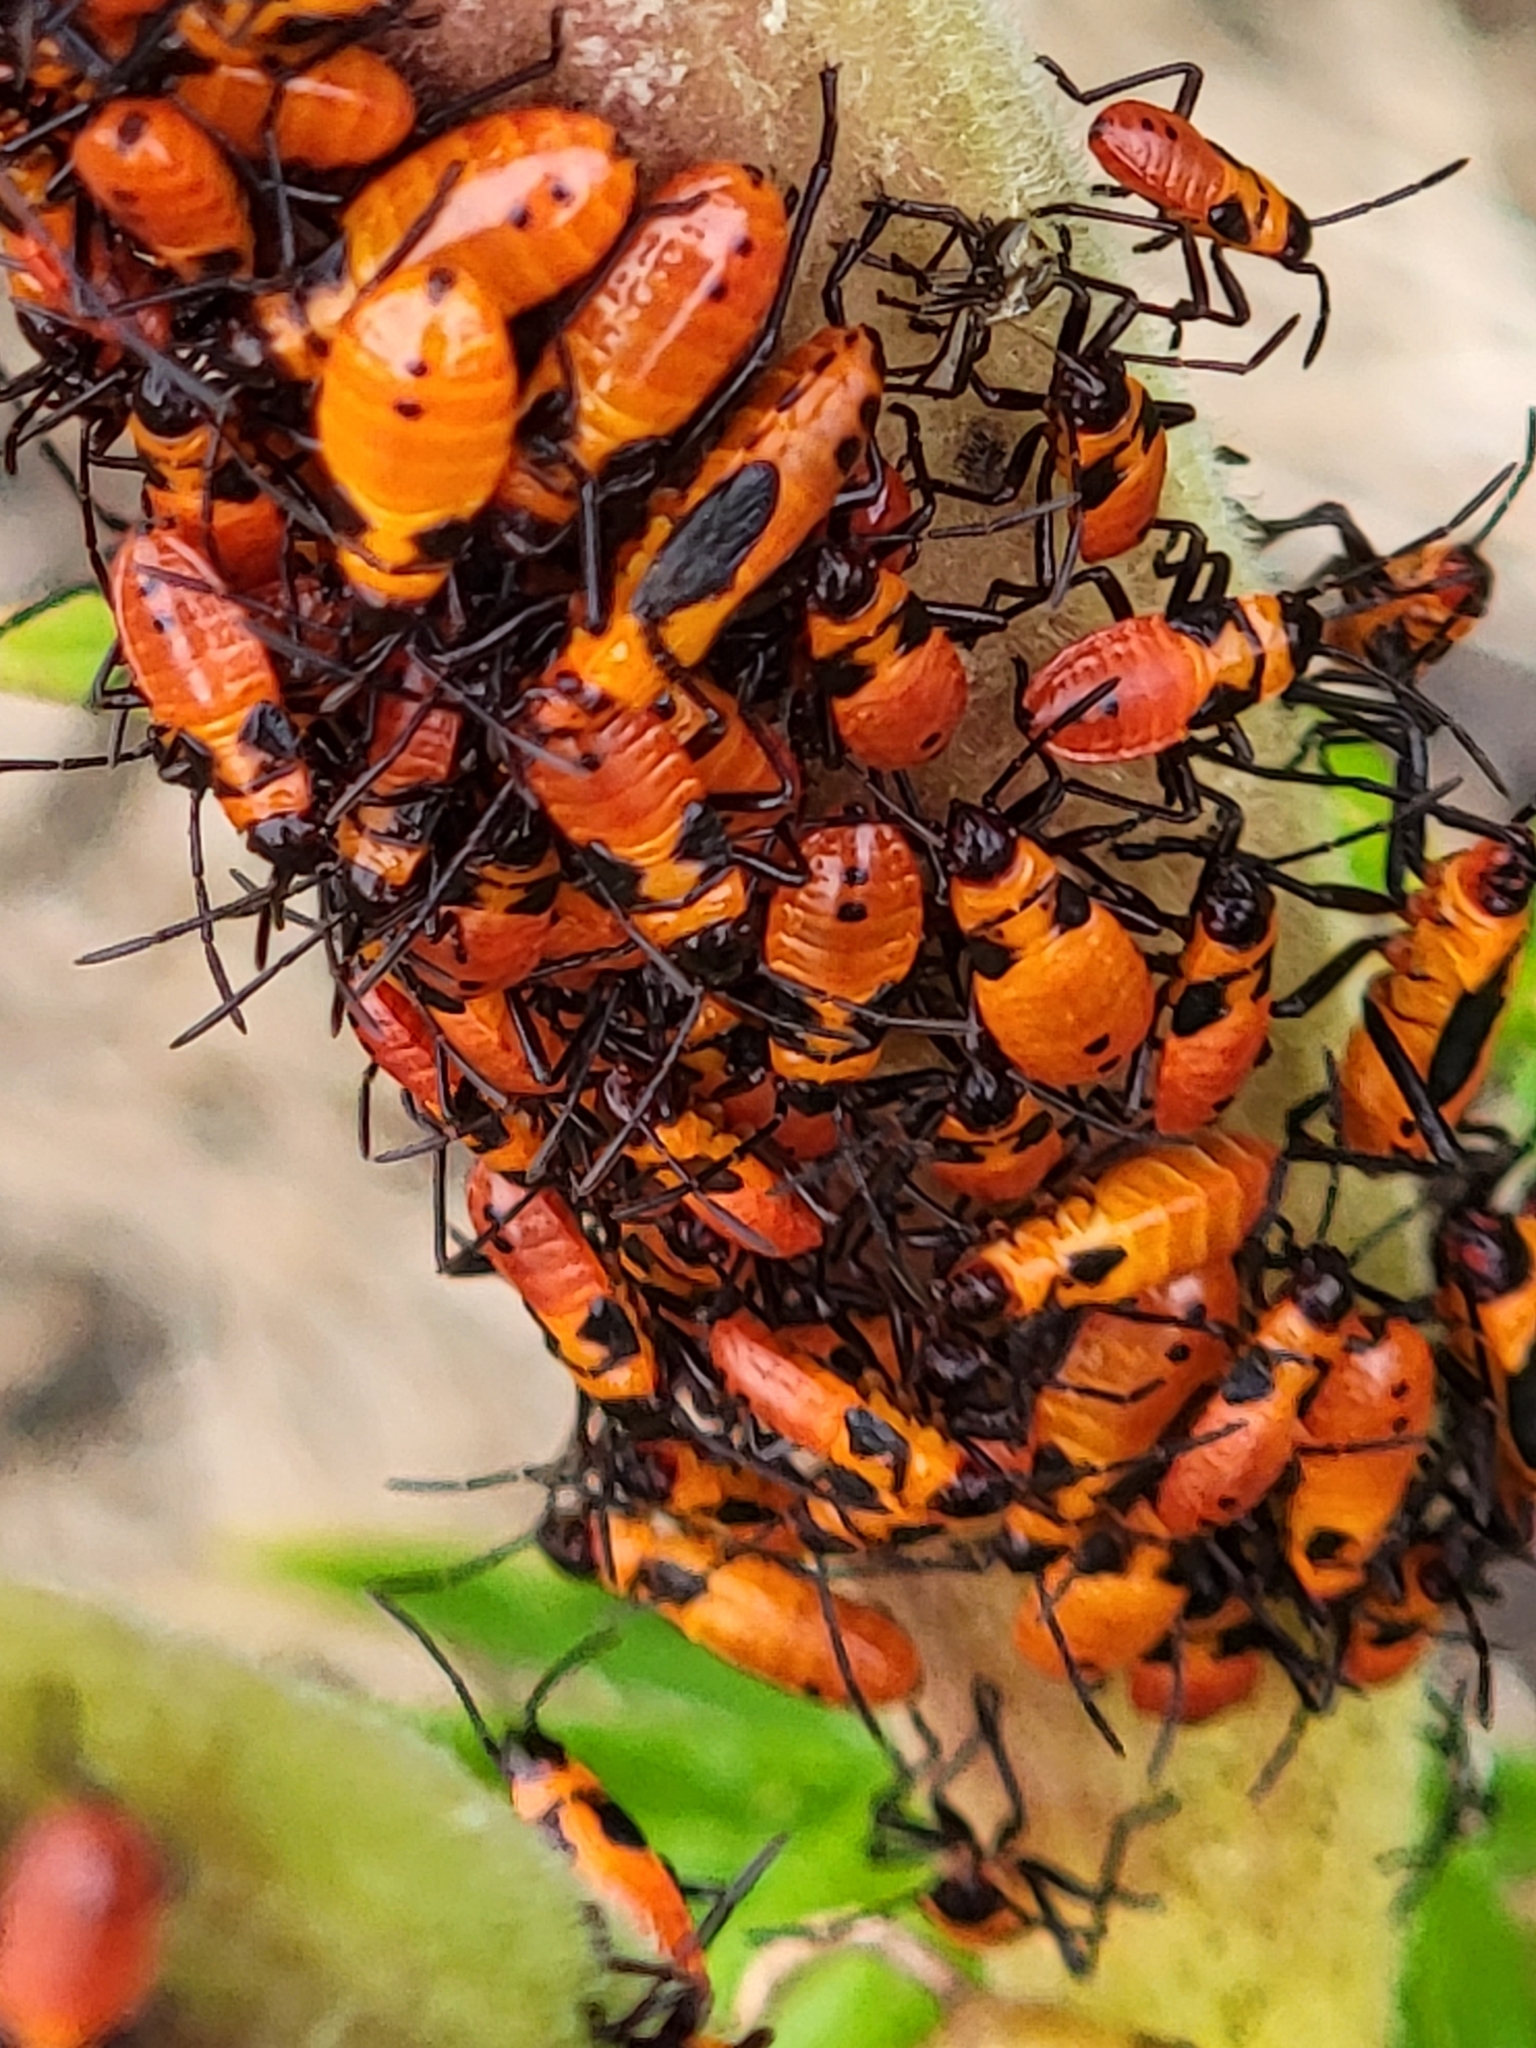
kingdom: Animalia
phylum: Arthropoda
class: Insecta
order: Hemiptera
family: Lygaeidae
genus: Oncopeltus
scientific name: Oncopeltus fasciatus
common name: Large milkweed bug
